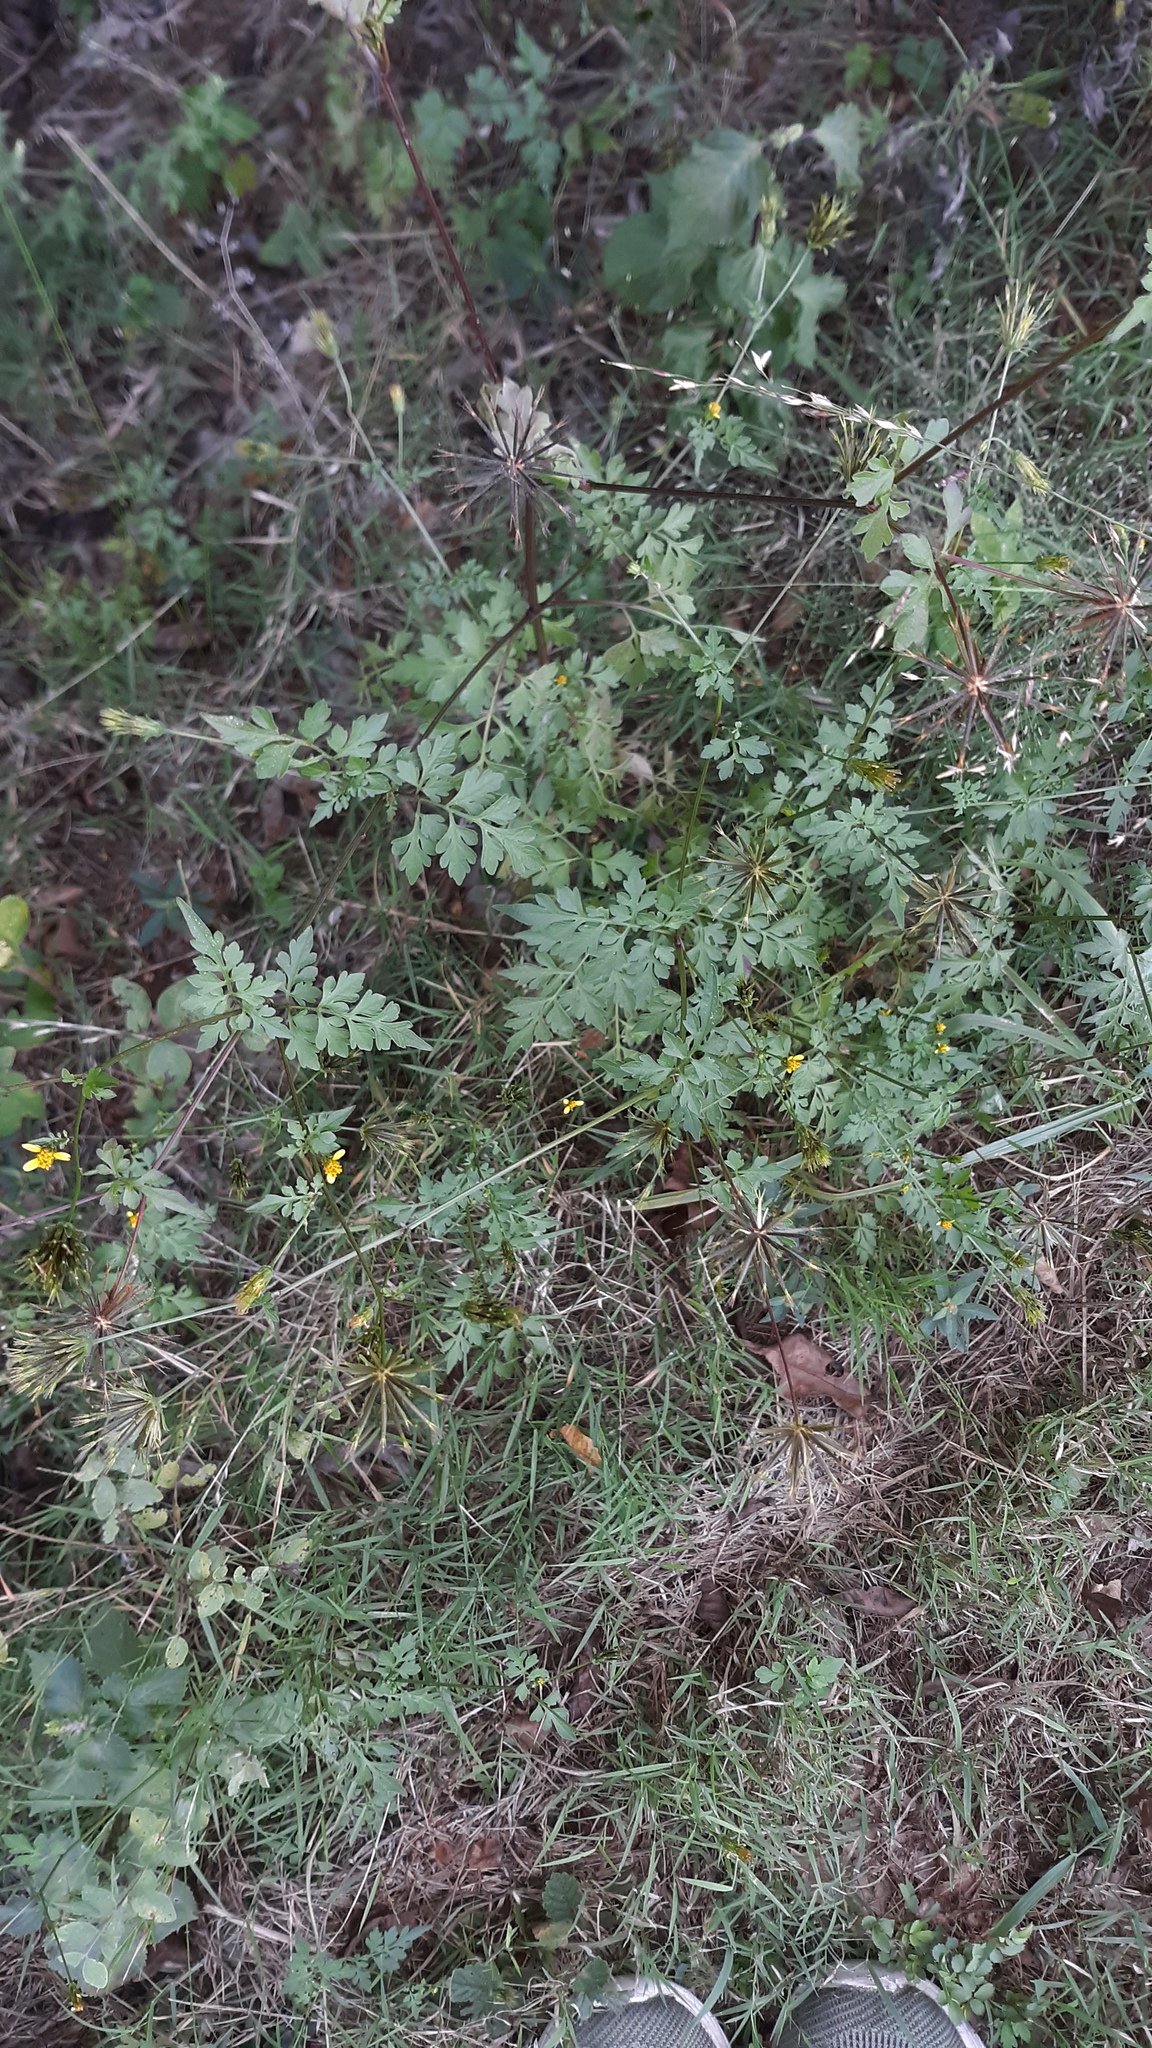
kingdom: Plantae
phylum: Tracheophyta
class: Magnoliopsida
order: Asterales
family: Asteraceae
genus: Bidens
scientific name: Bidens bipinnata
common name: Spanish-needles
